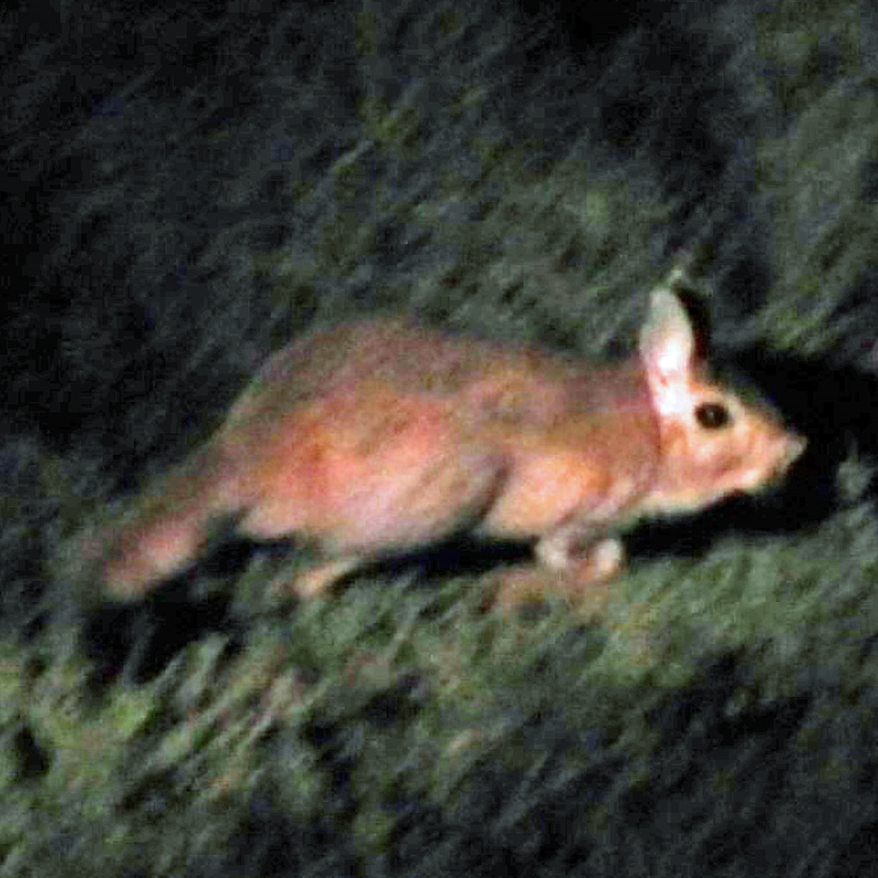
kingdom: Animalia
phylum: Chordata
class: Mammalia
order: Rodentia
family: Pedetidae
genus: Pedetes
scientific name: Pedetes capensis
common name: South african spring hare
